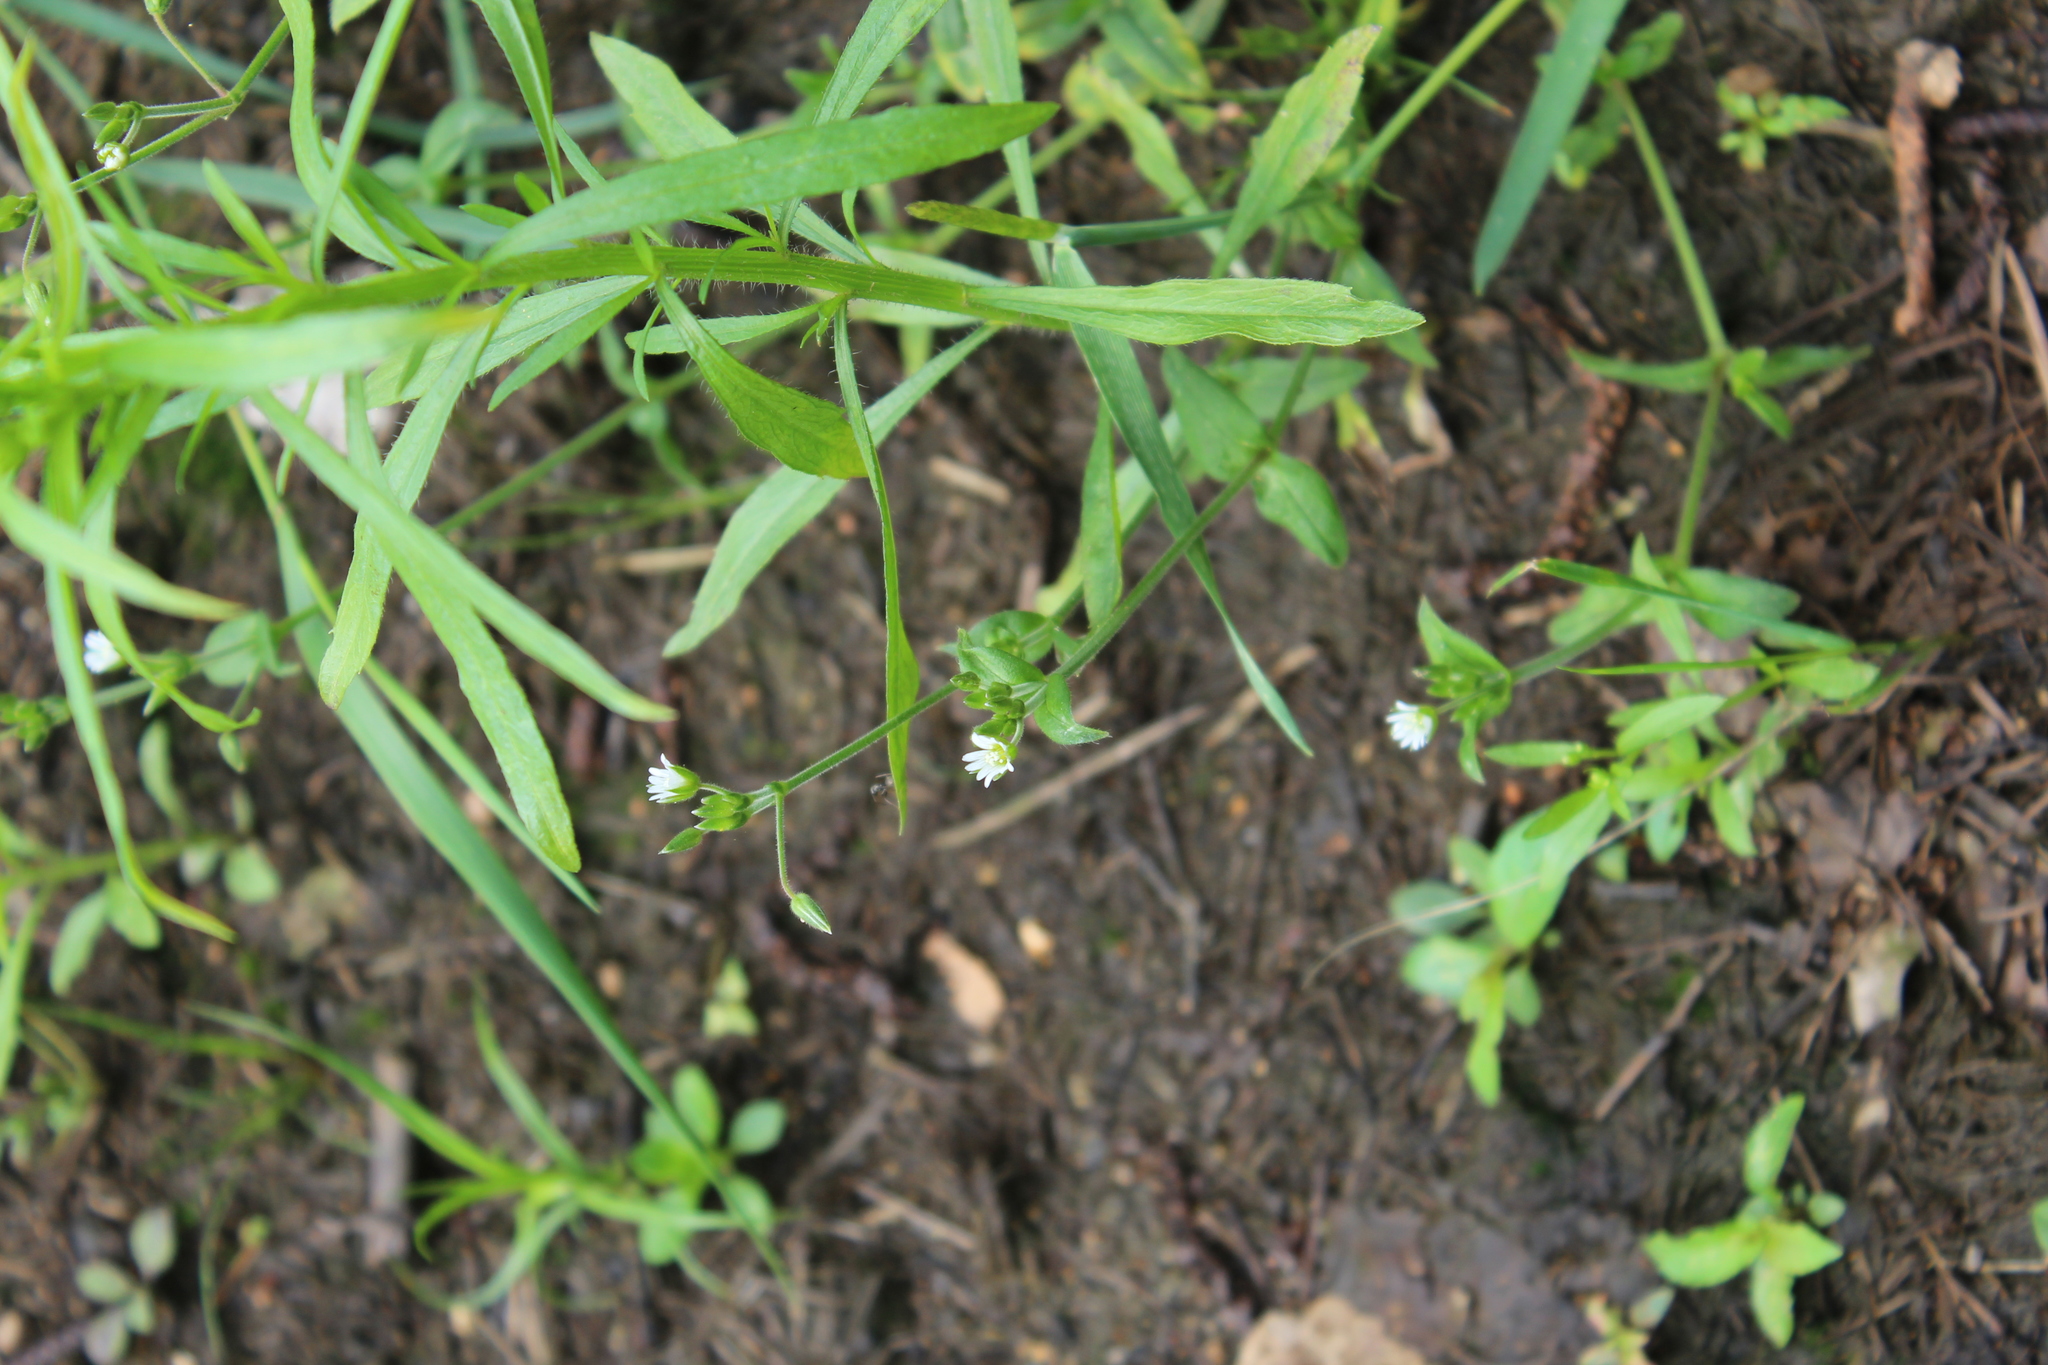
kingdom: Plantae
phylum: Tracheophyta
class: Magnoliopsida
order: Caryophyllales
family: Caryophyllaceae
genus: Cerastium
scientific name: Cerastium holosteoides
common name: Big chickweed
